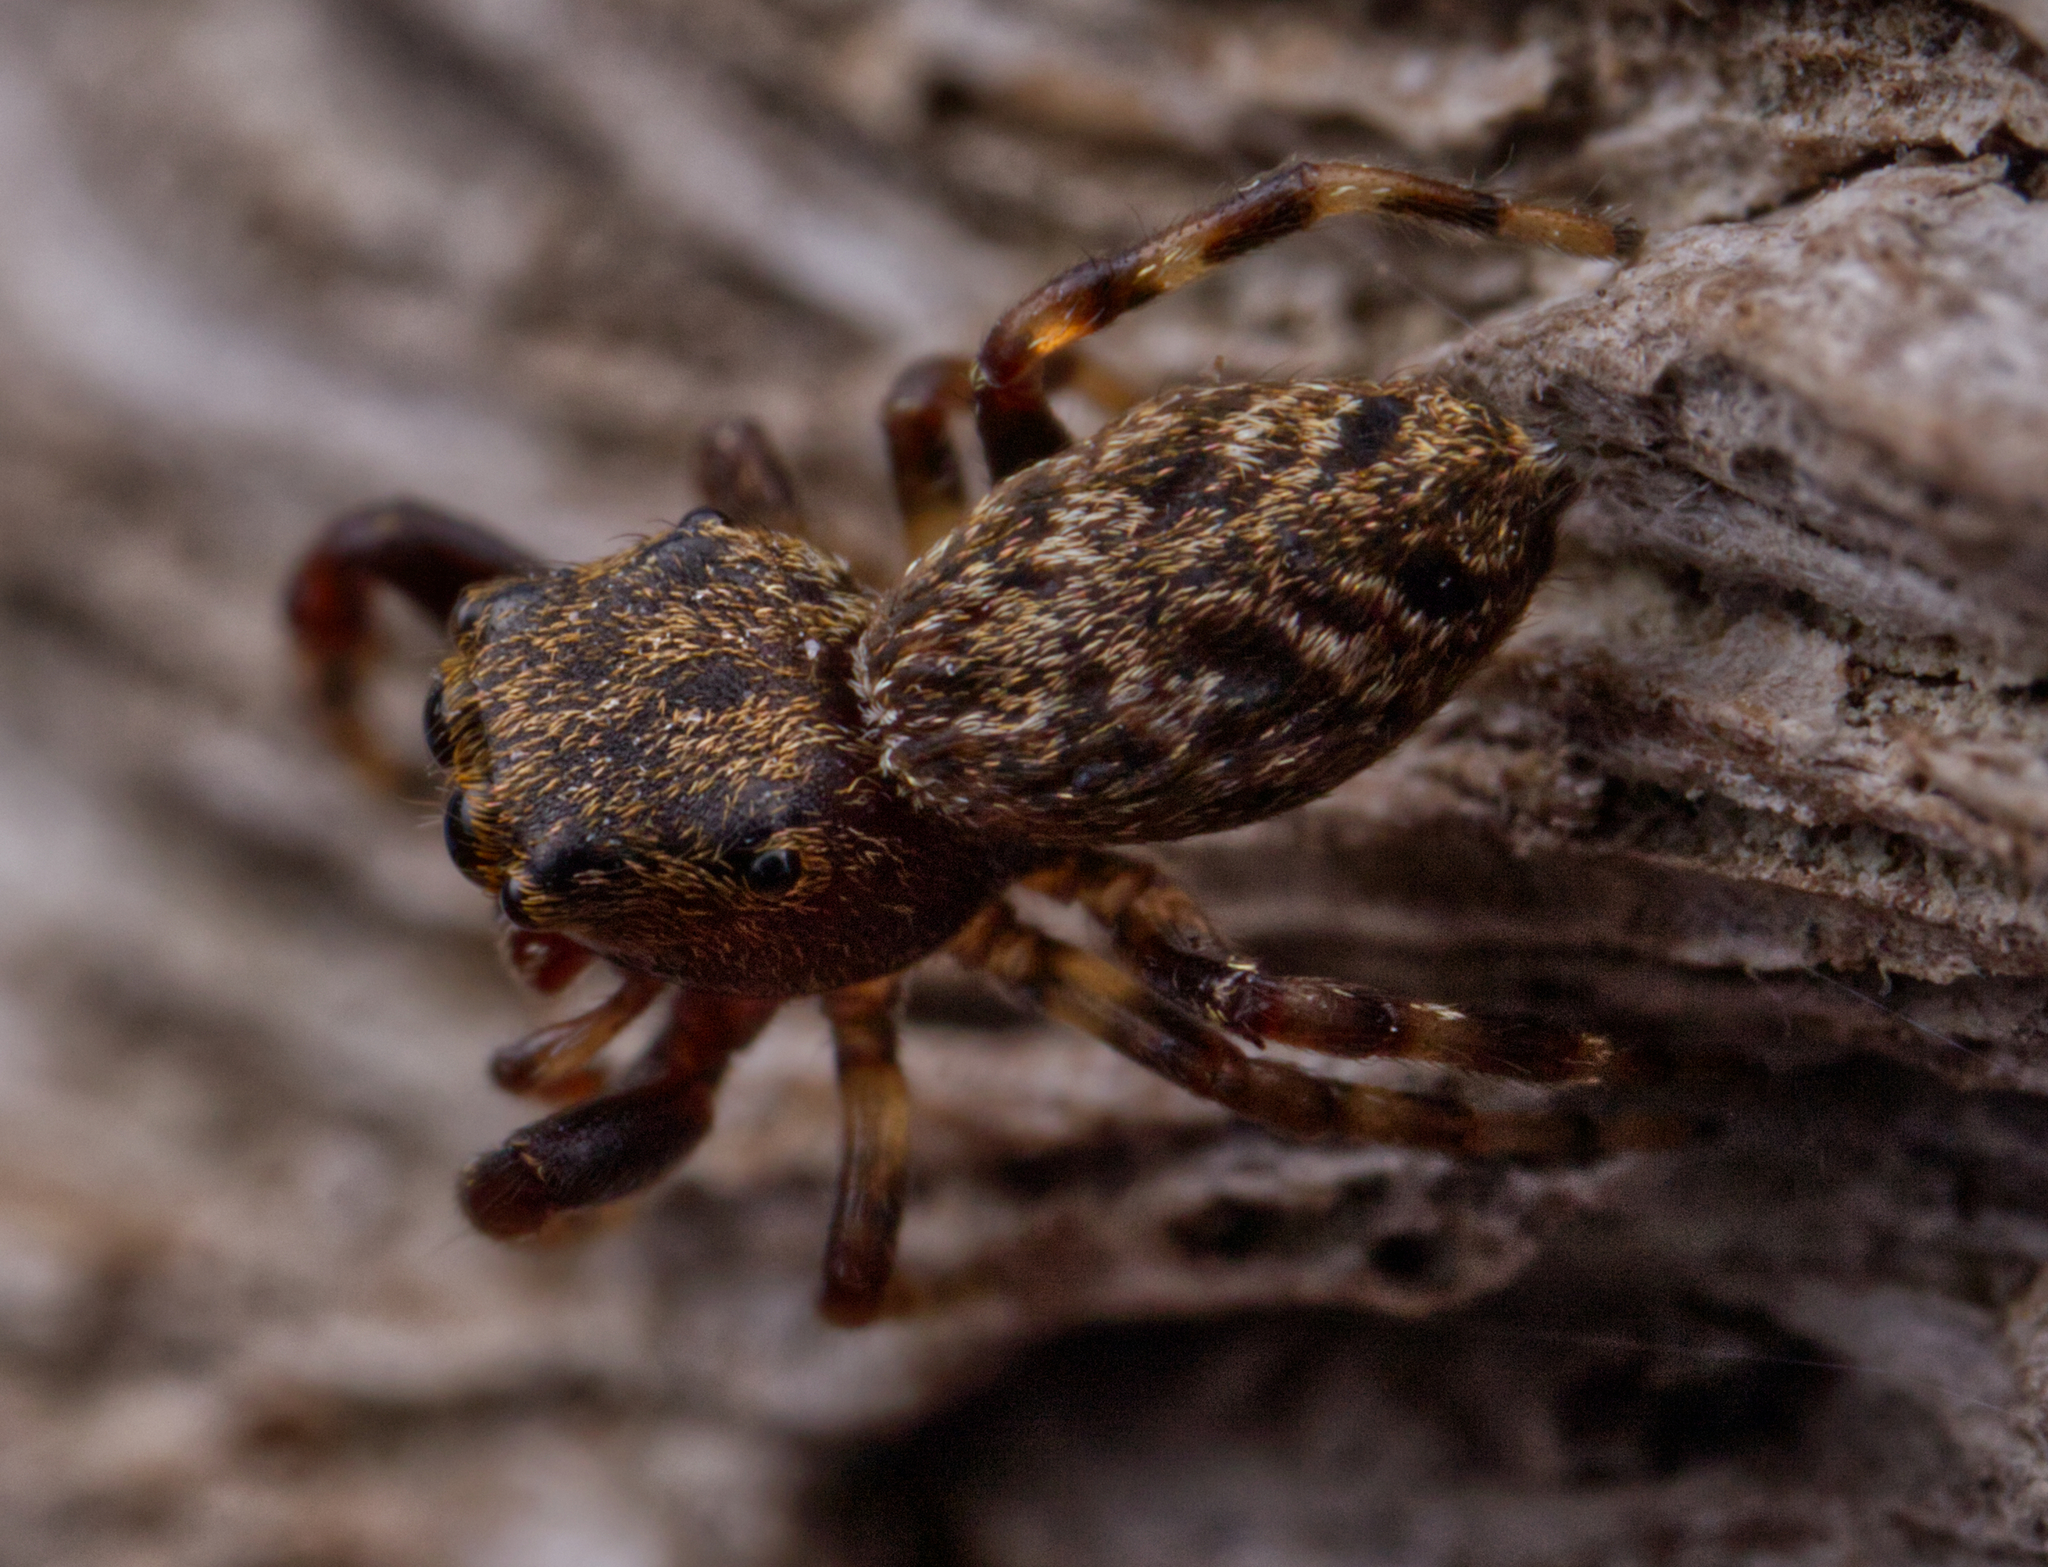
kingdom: Animalia
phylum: Arthropoda
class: Arachnida
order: Araneae
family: Salticidae
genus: Zygoballus
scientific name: Zygoballus nervosus
